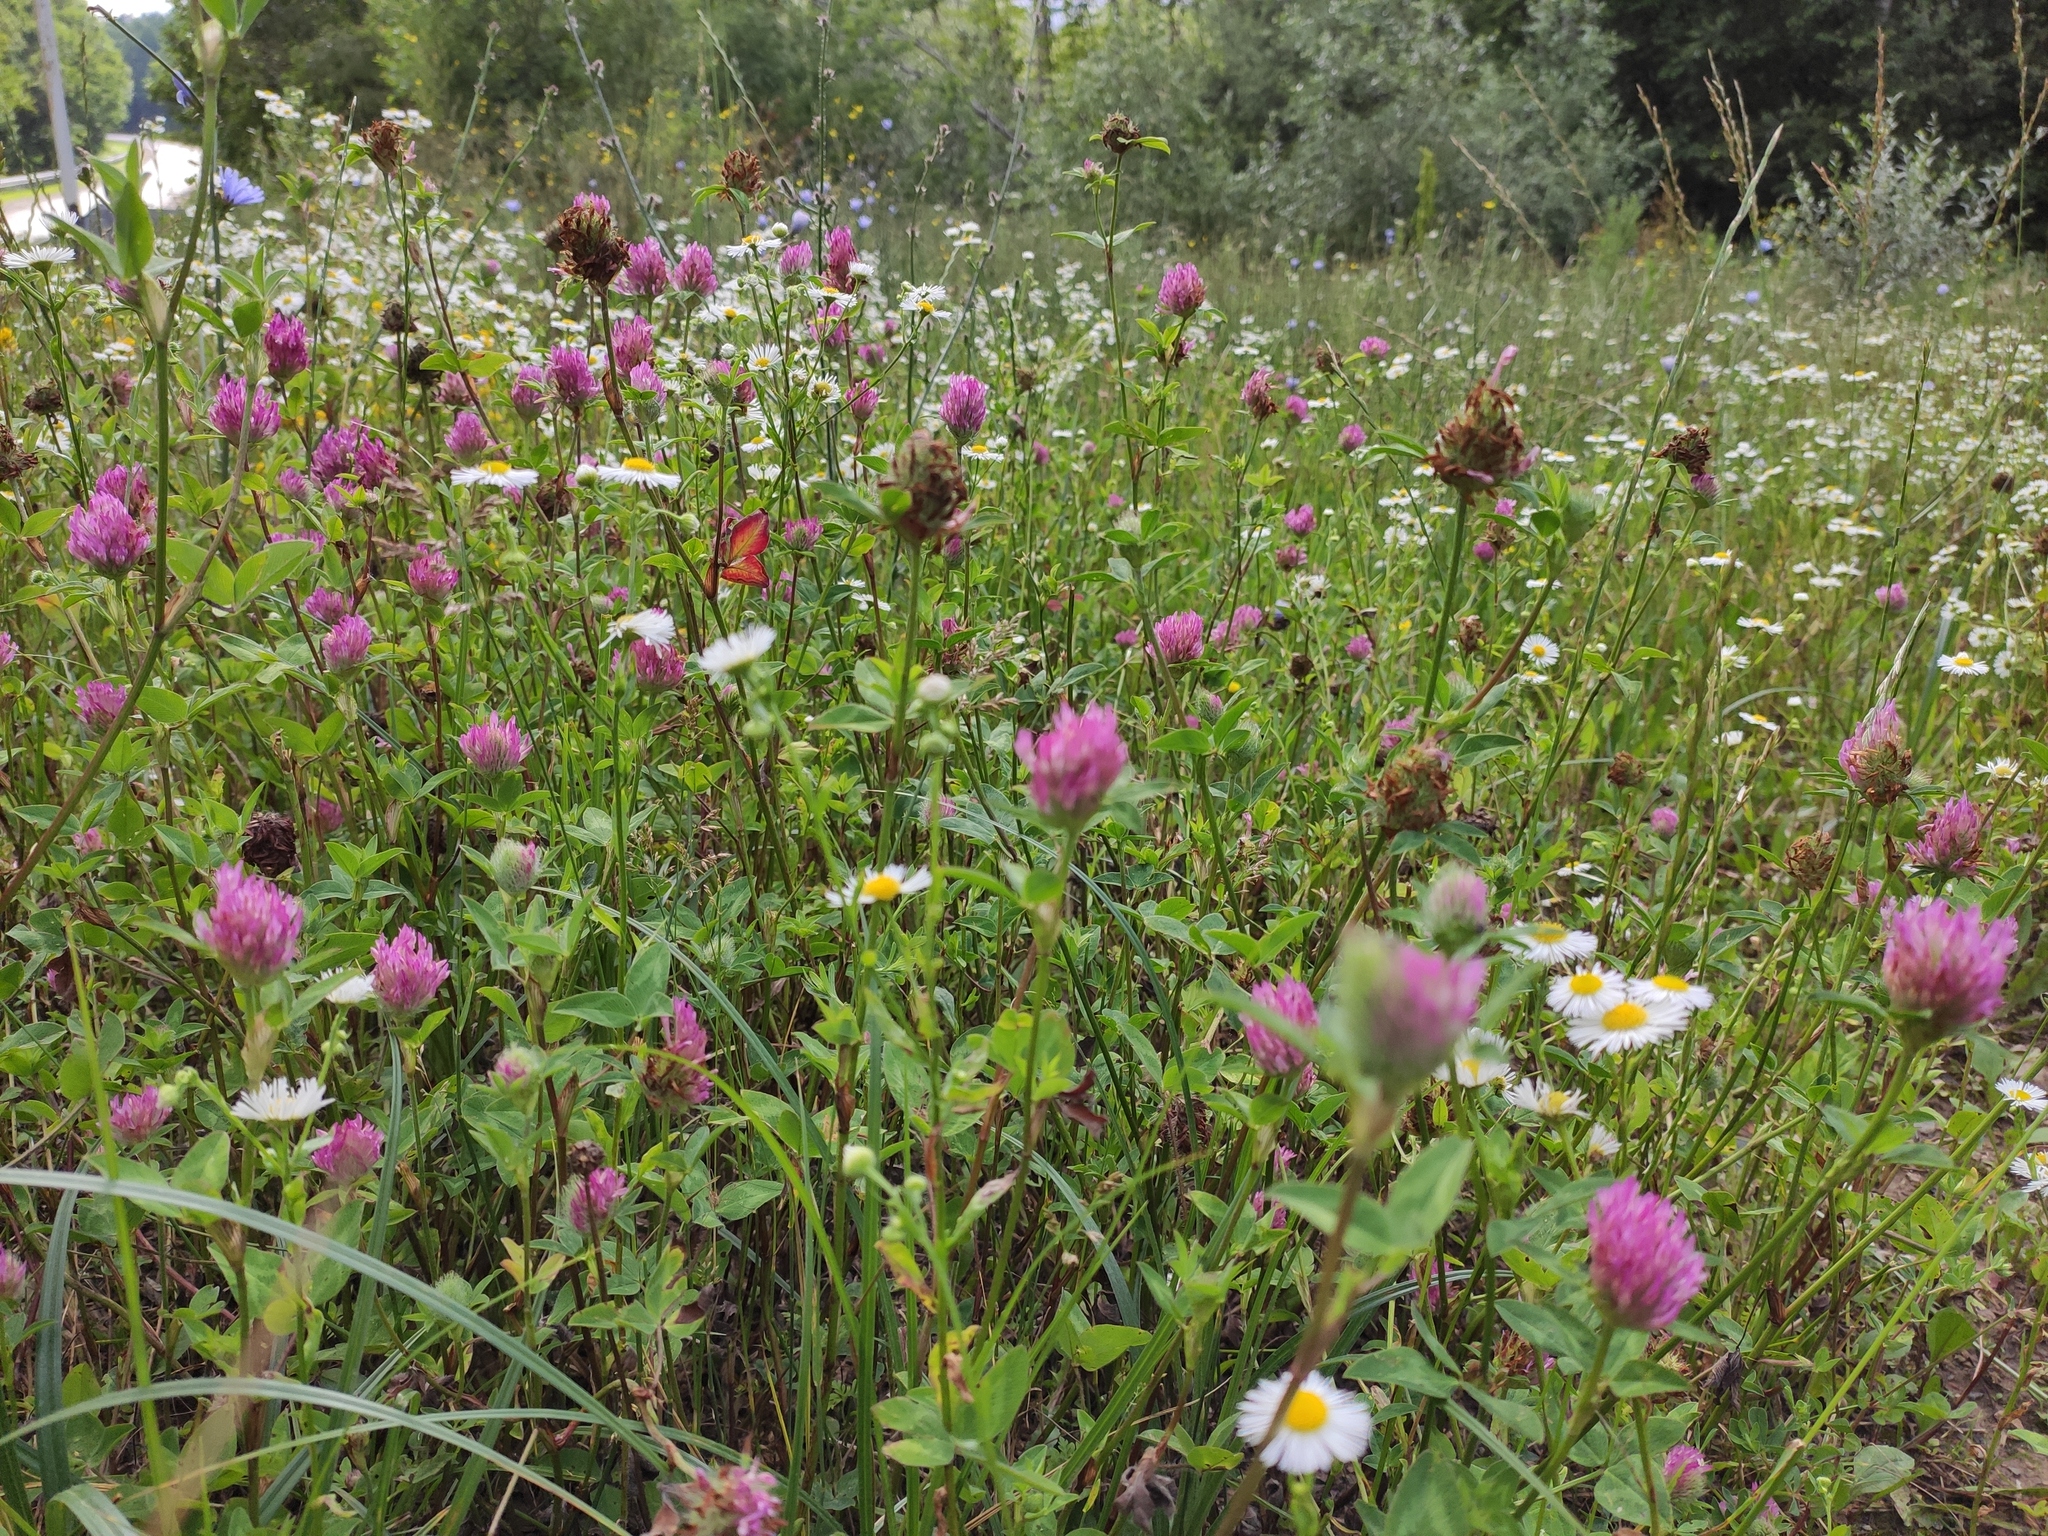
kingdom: Plantae
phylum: Tracheophyta
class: Magnoliopsida
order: Fabales
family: Fabaceae
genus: Trifolium
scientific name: Trifolium pratense
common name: Red clover
